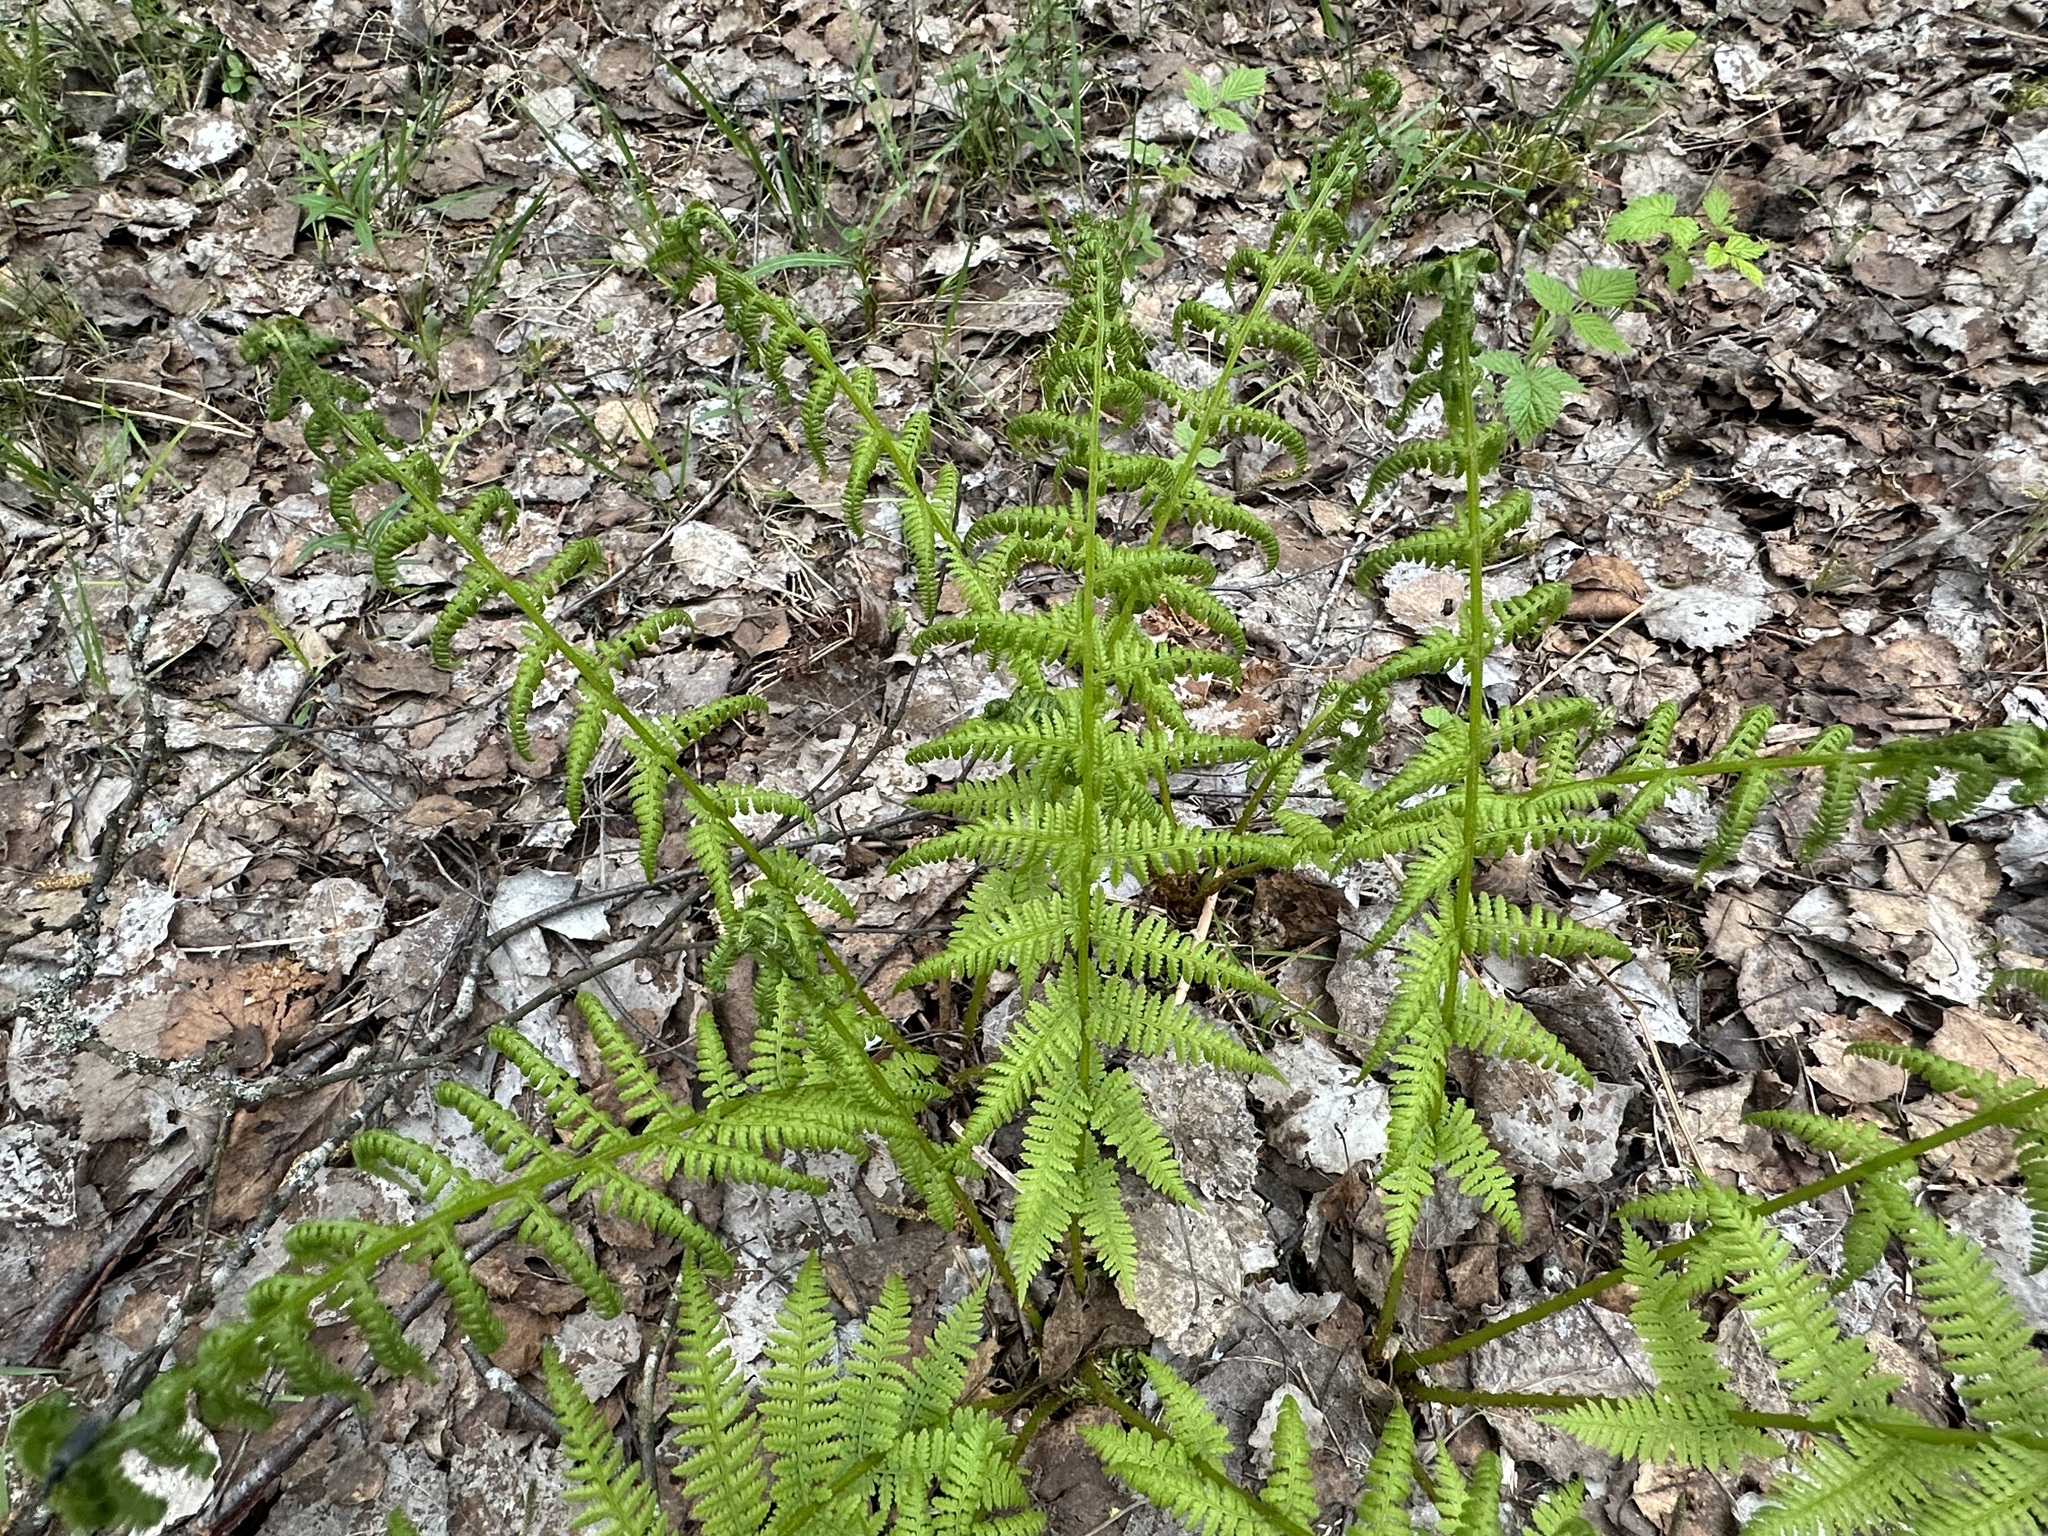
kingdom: Plantae
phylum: Tracheophyta
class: Polypodiopsida
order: Polypodiales
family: Dryopteridaceae
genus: Dryopteris
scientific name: Dryopteris filix-mas
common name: Male fern
